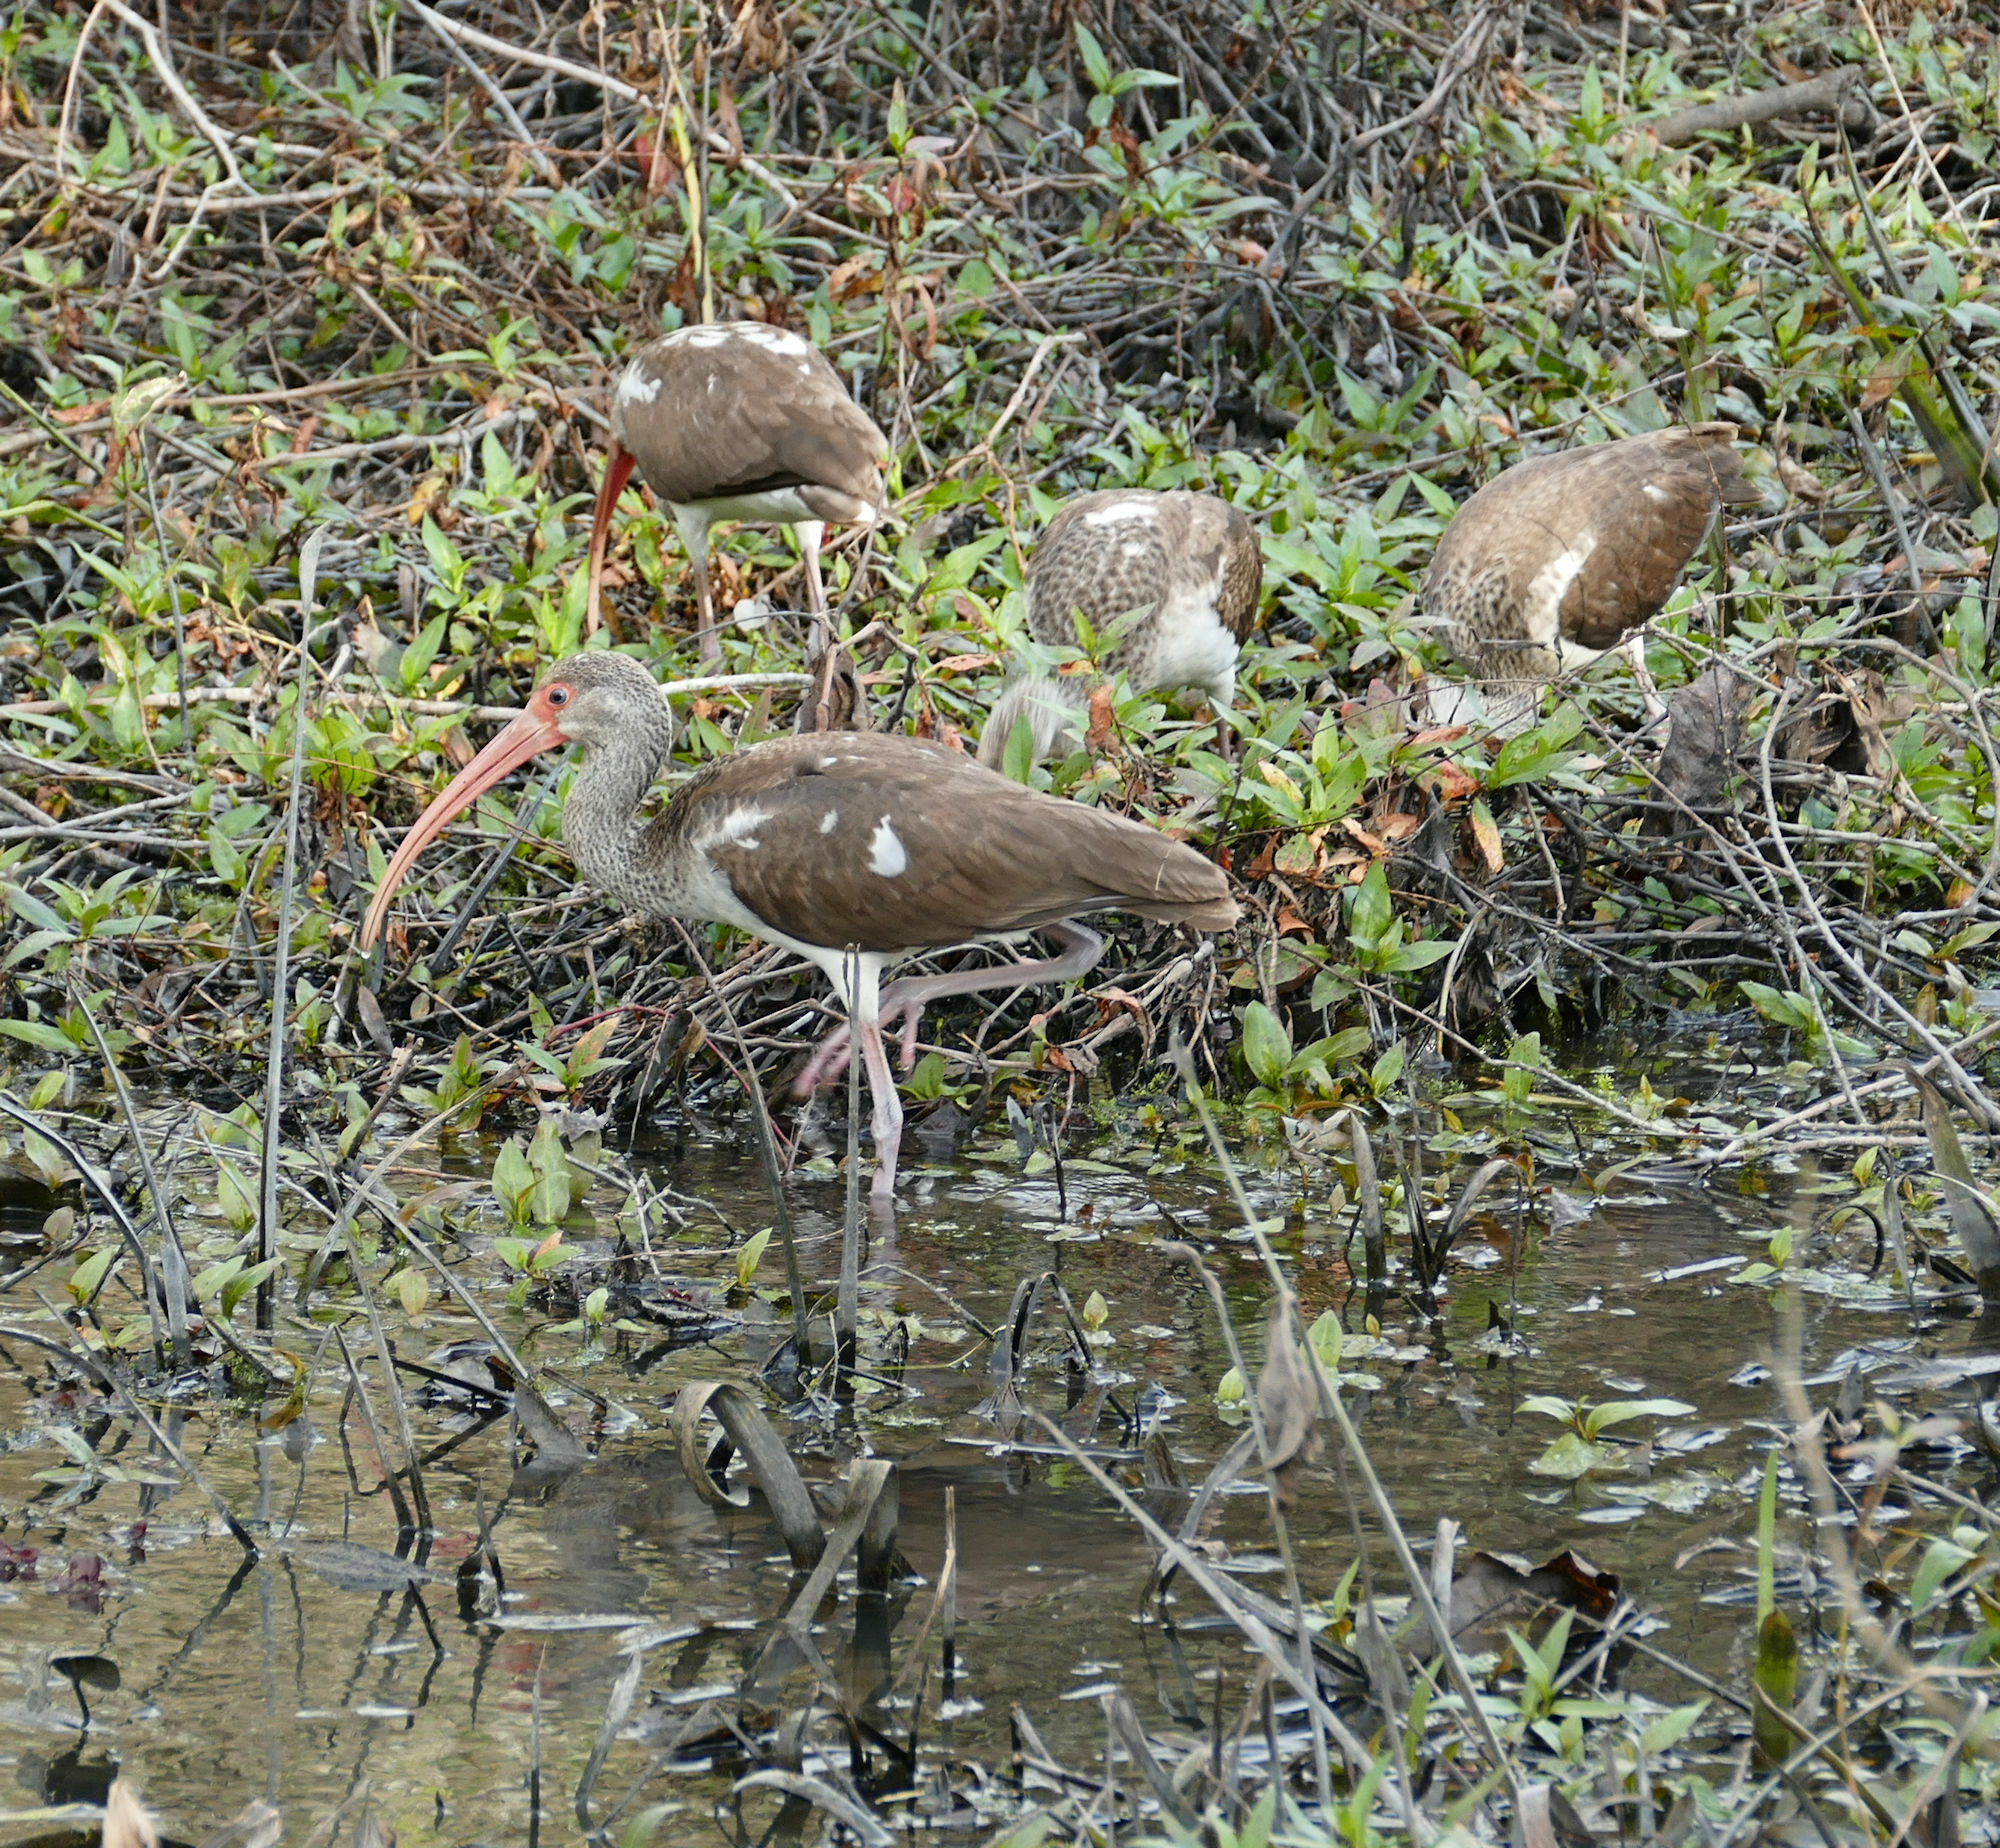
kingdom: Animalia
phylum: Chordata
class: Aves
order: Pelecaniformes
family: Threskiornithidae
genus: Eudocimus
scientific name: Eudocimus albus
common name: White ibis
